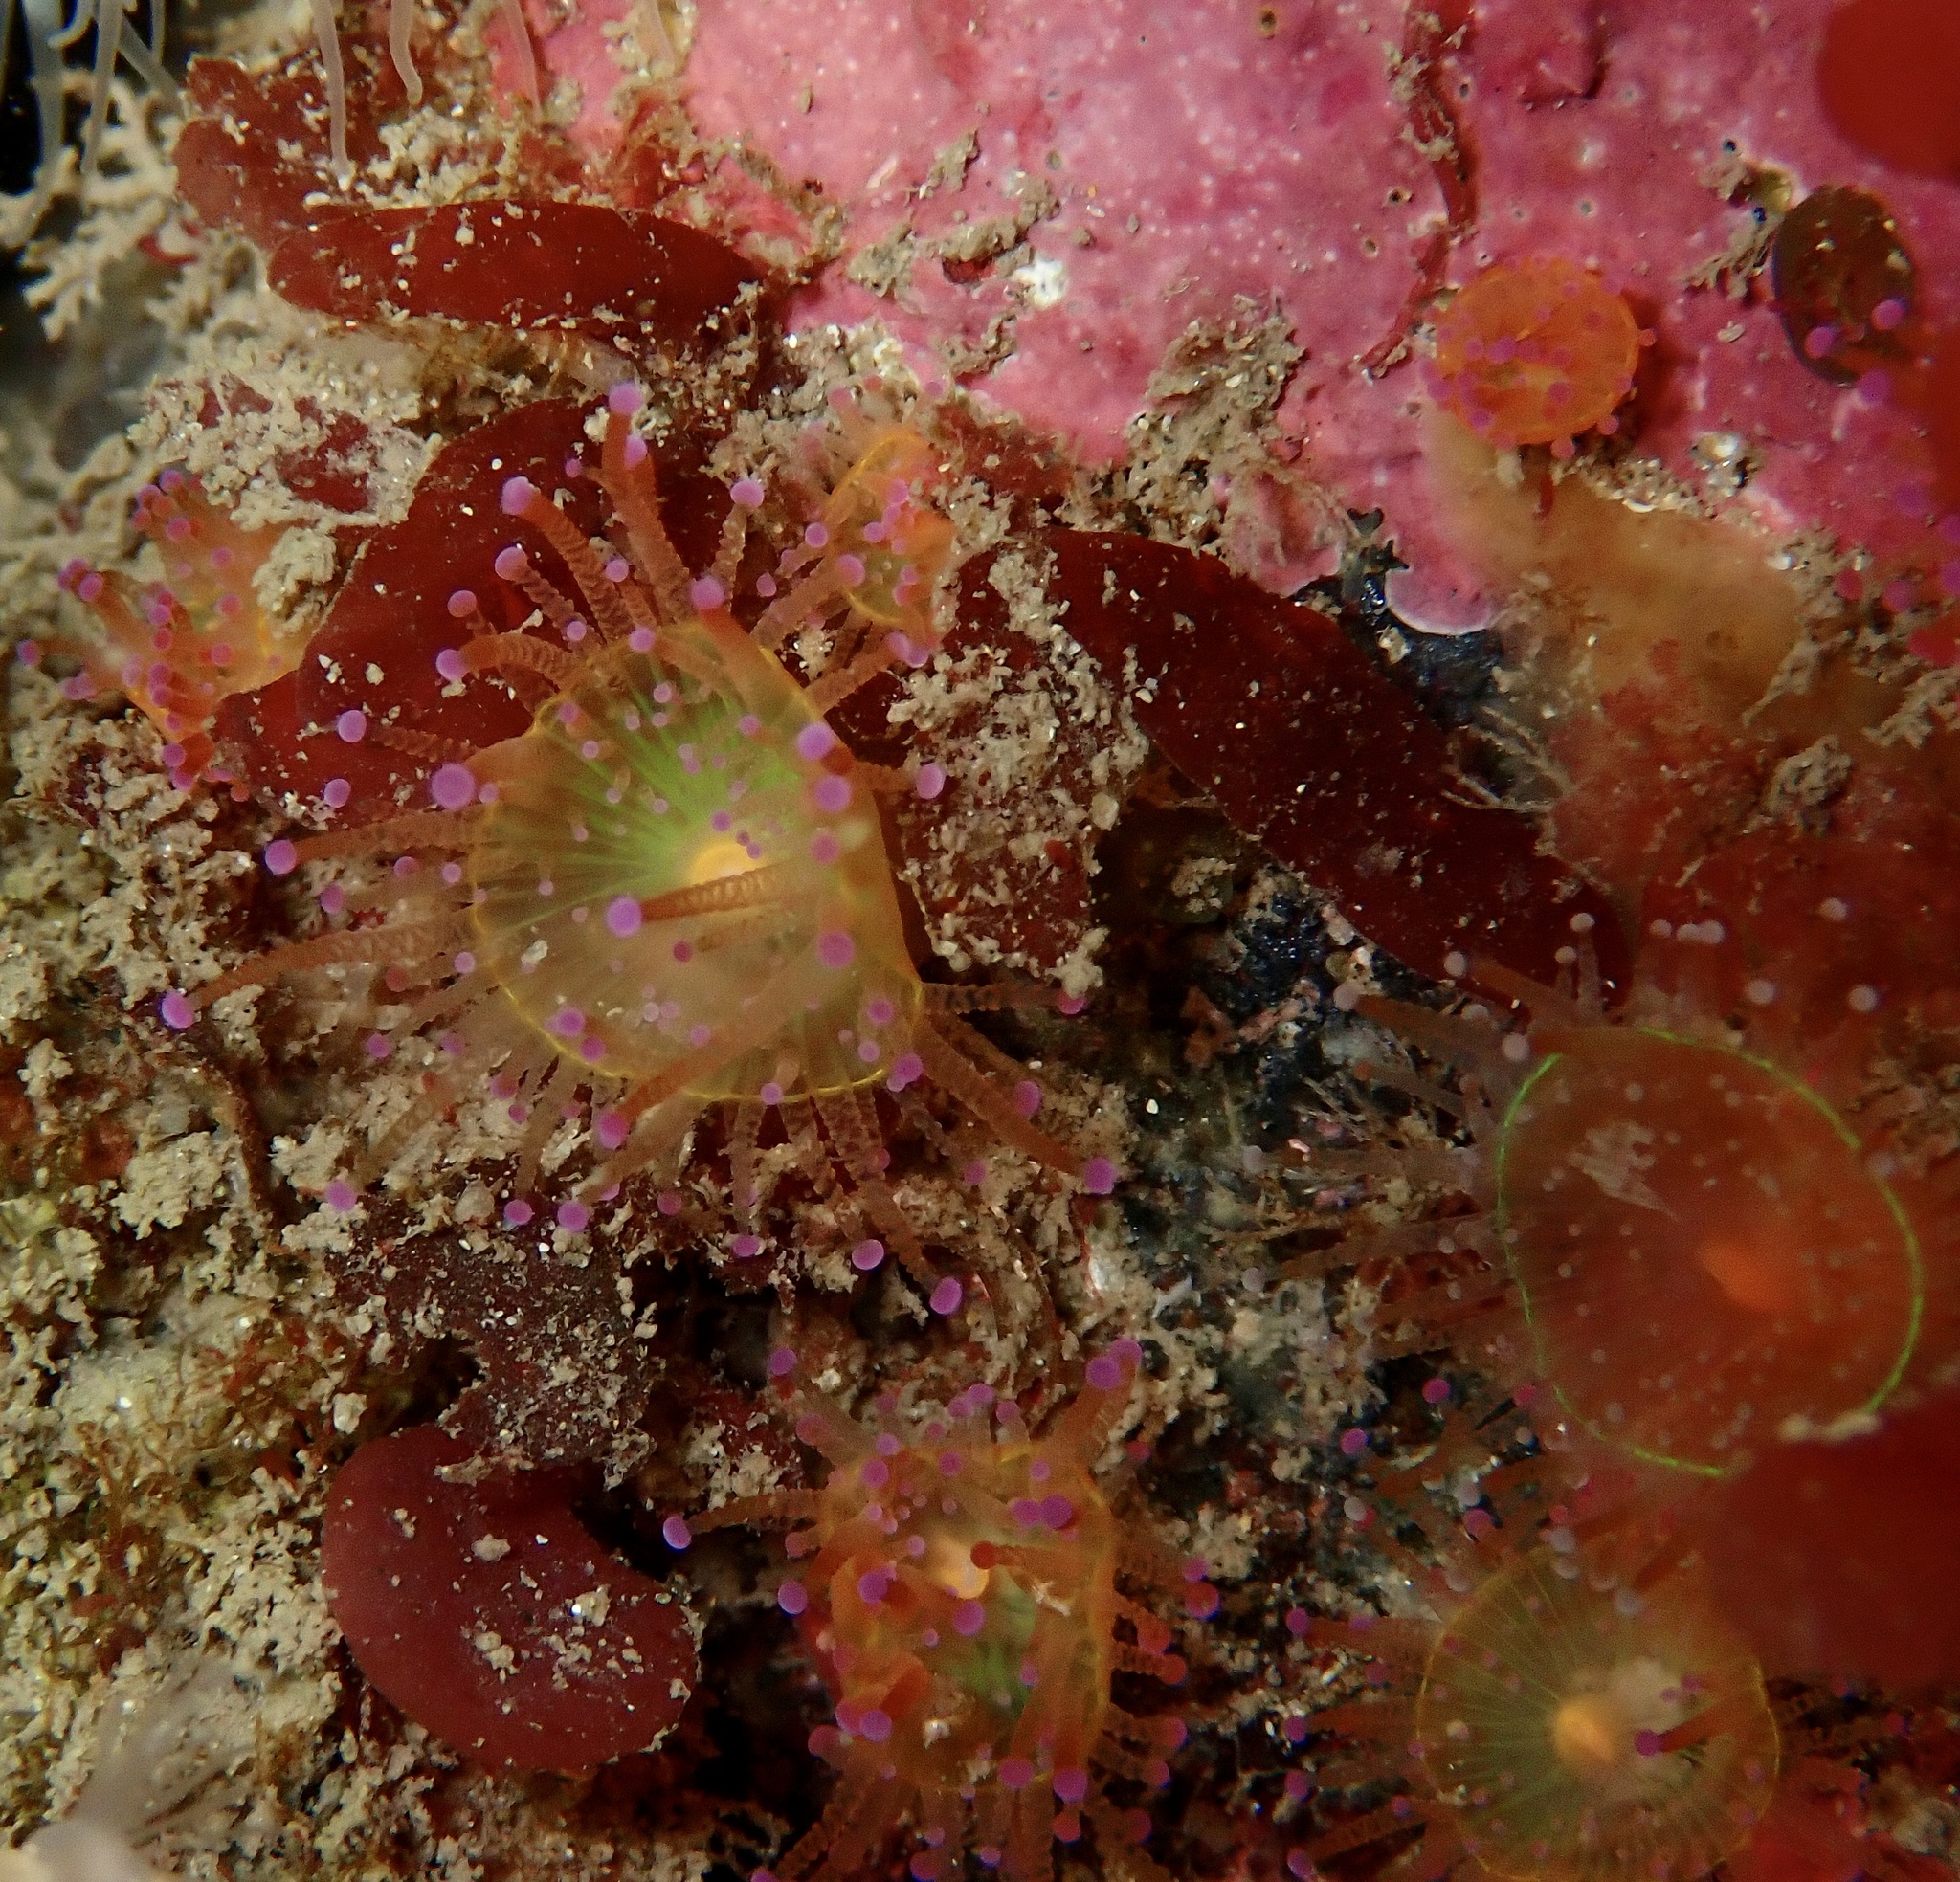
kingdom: Animalia
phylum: Cnidaria
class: Anthozoa
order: Corallimorpharia
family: Corallimorphidae
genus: Corynactis
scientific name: Corynactis viridis
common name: Jewel anemone
